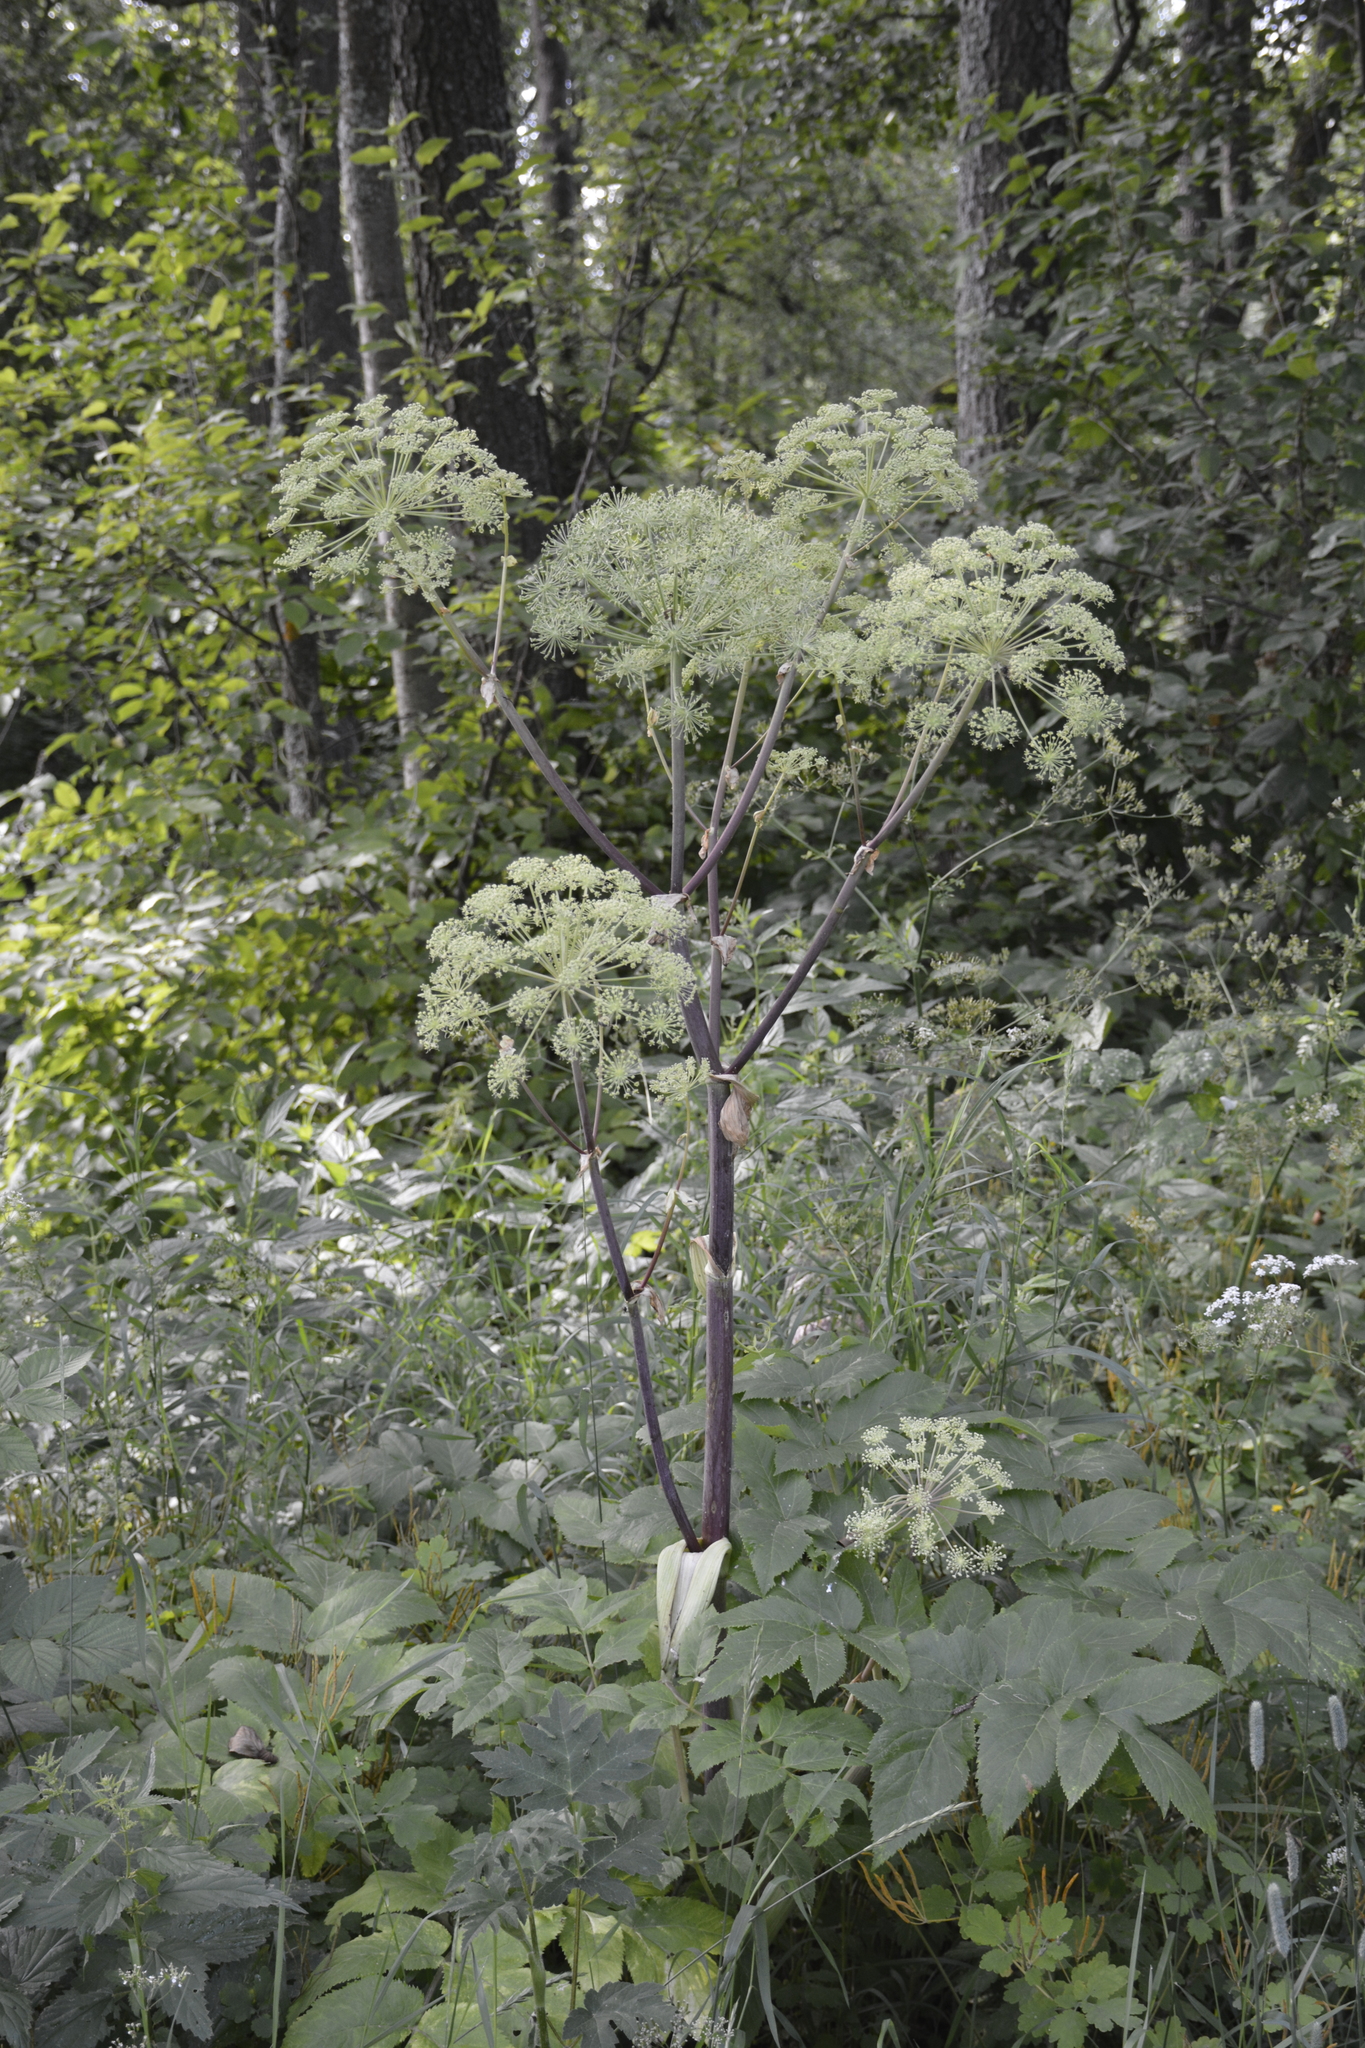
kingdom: Plantae
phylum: Tracheophyta
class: Magnoliopsida
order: Apiales
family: Apiaceae
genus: Angelica
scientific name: Angelica archangelica
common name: Garden angelica
